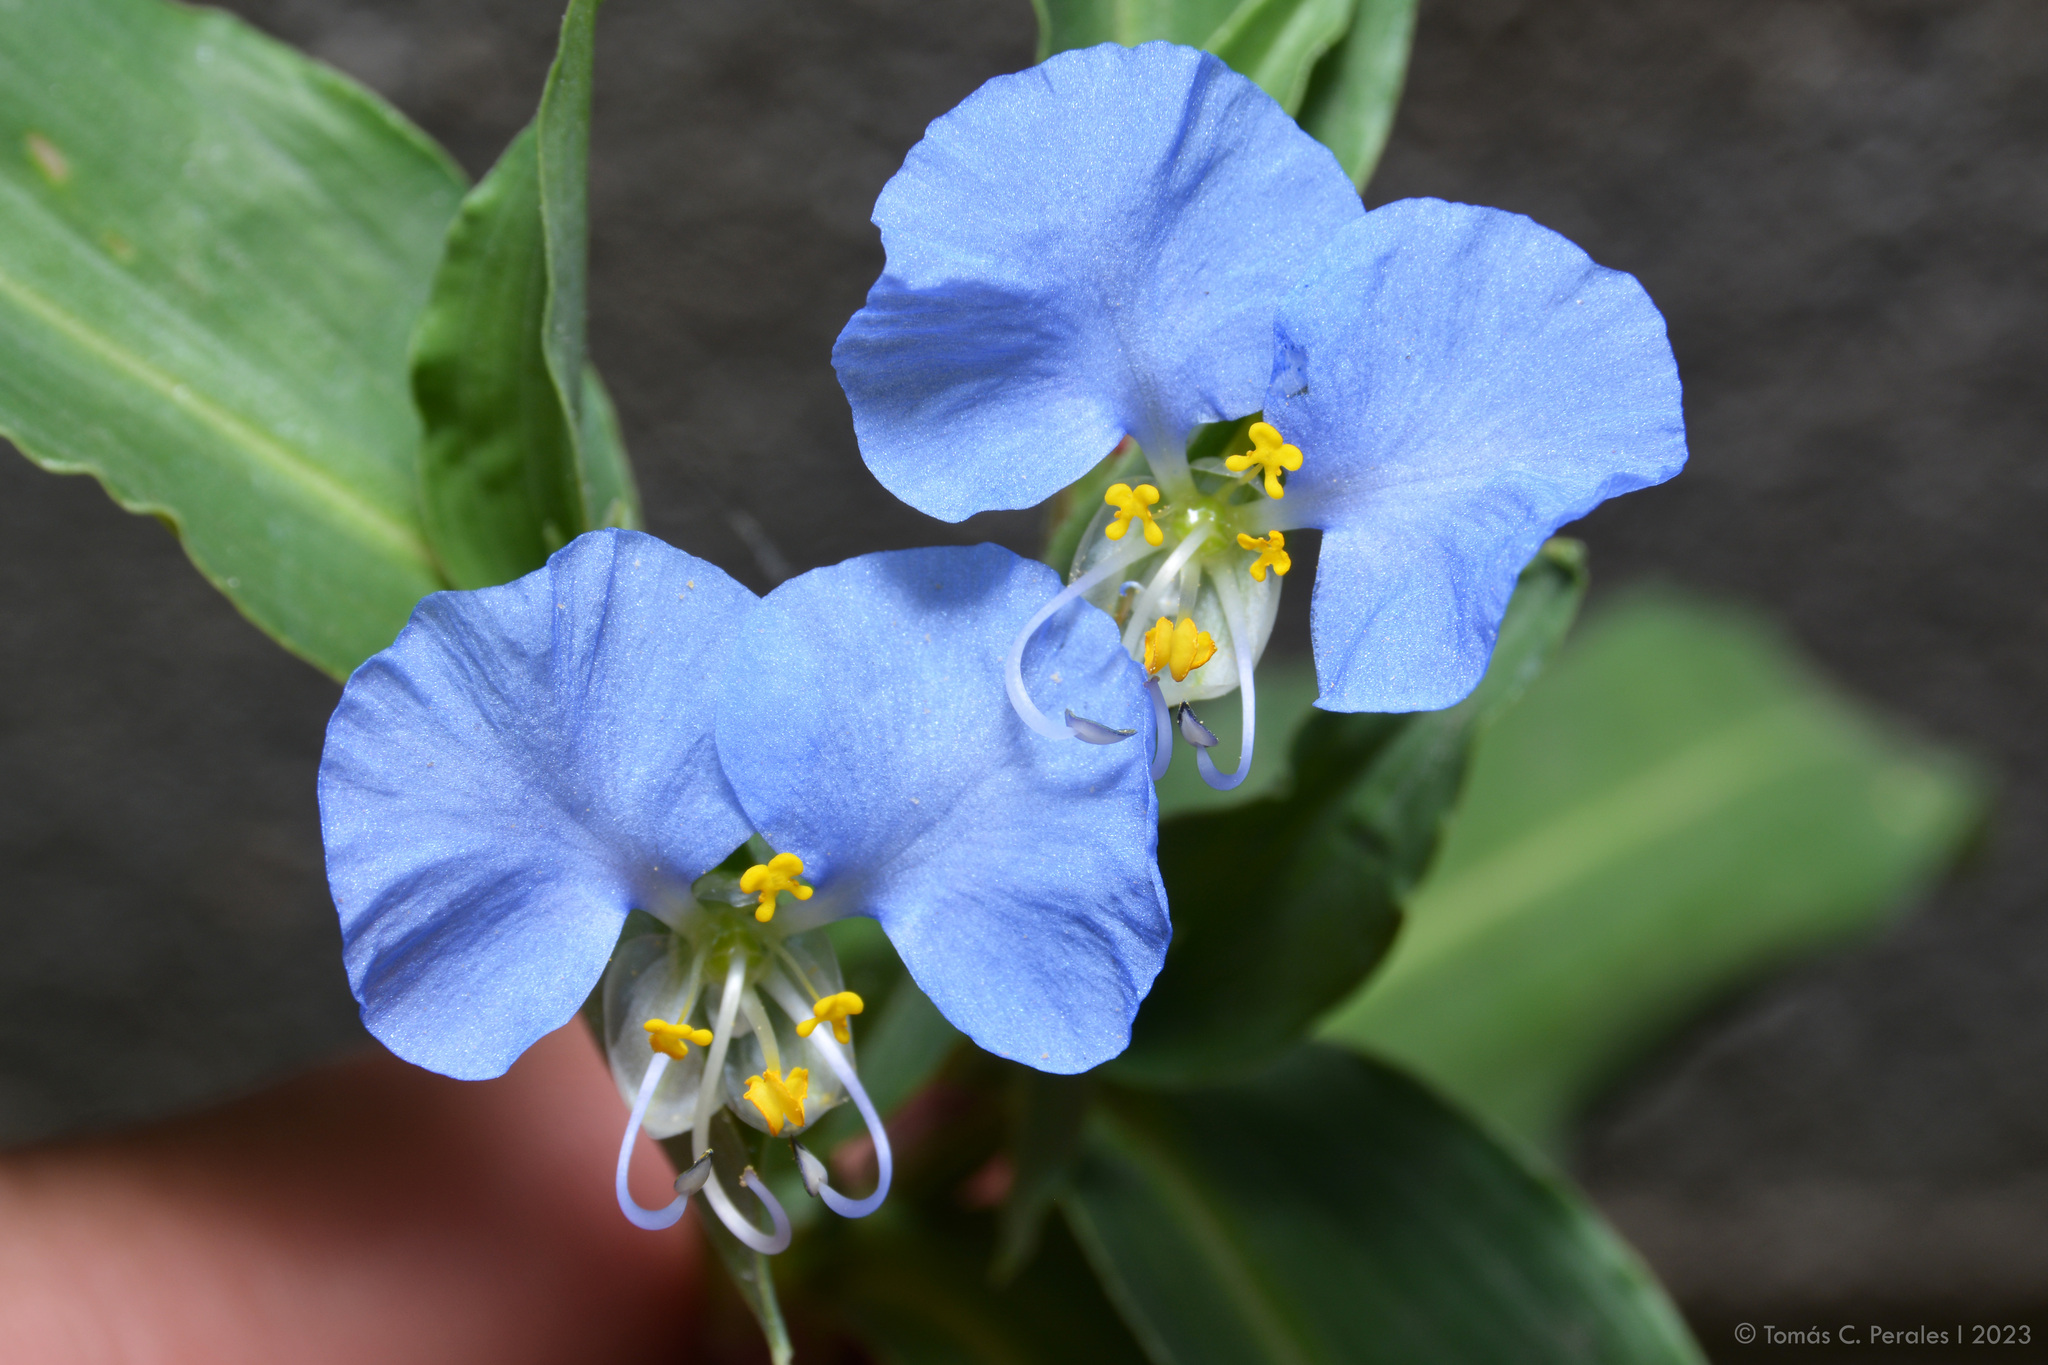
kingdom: Plantae
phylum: Tracheophyta
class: Liliopsida
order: Commelinales
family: Commelinaceae
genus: Commelina
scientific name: Commelina erecta
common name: Blousel blommetjie
